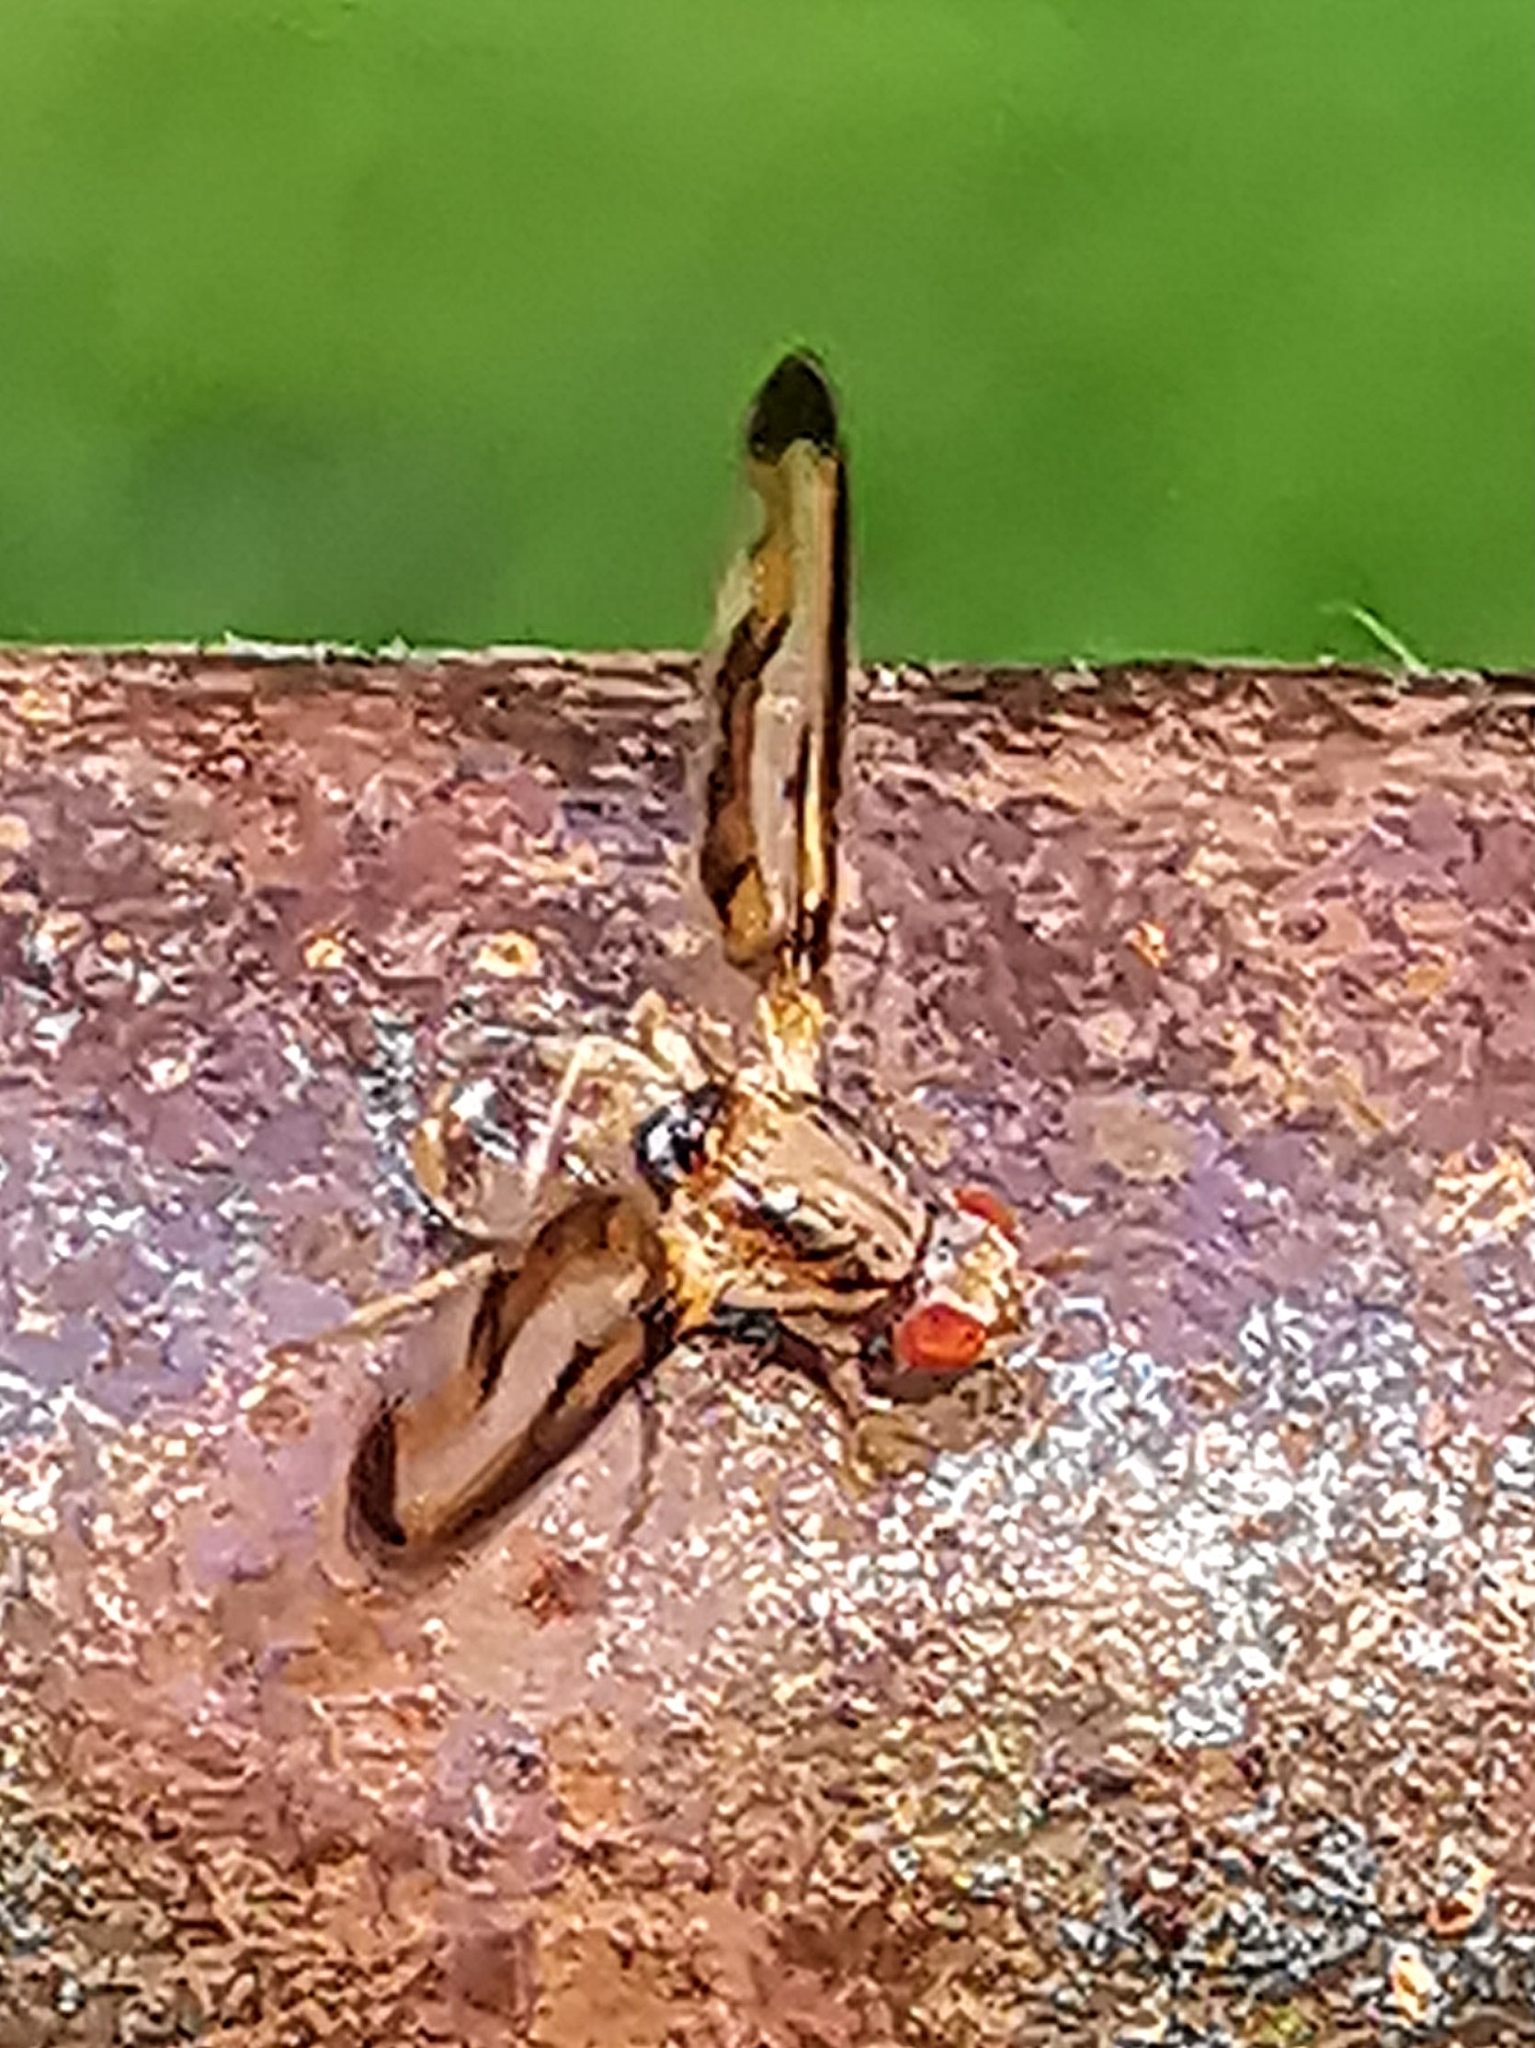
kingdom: Animalia
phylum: Arthropoda
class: Insecta
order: Diptera
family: Pallopteridae
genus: Toxonevra
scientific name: Toxonevra muliebris
